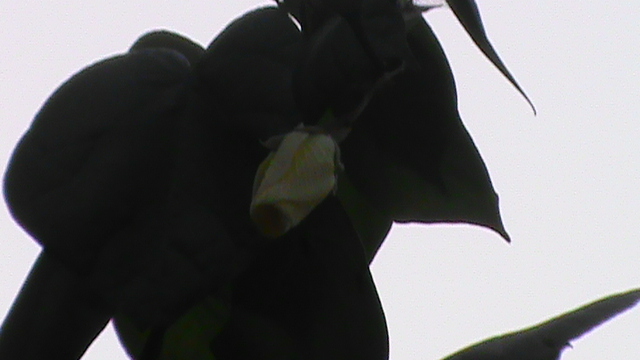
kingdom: Plantae
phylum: Tracheophyta
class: Magnoliopsida
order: Malvales
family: Malvaceae
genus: Talipariti
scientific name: Talipariti tiliaceum
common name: Sea hibiscus
